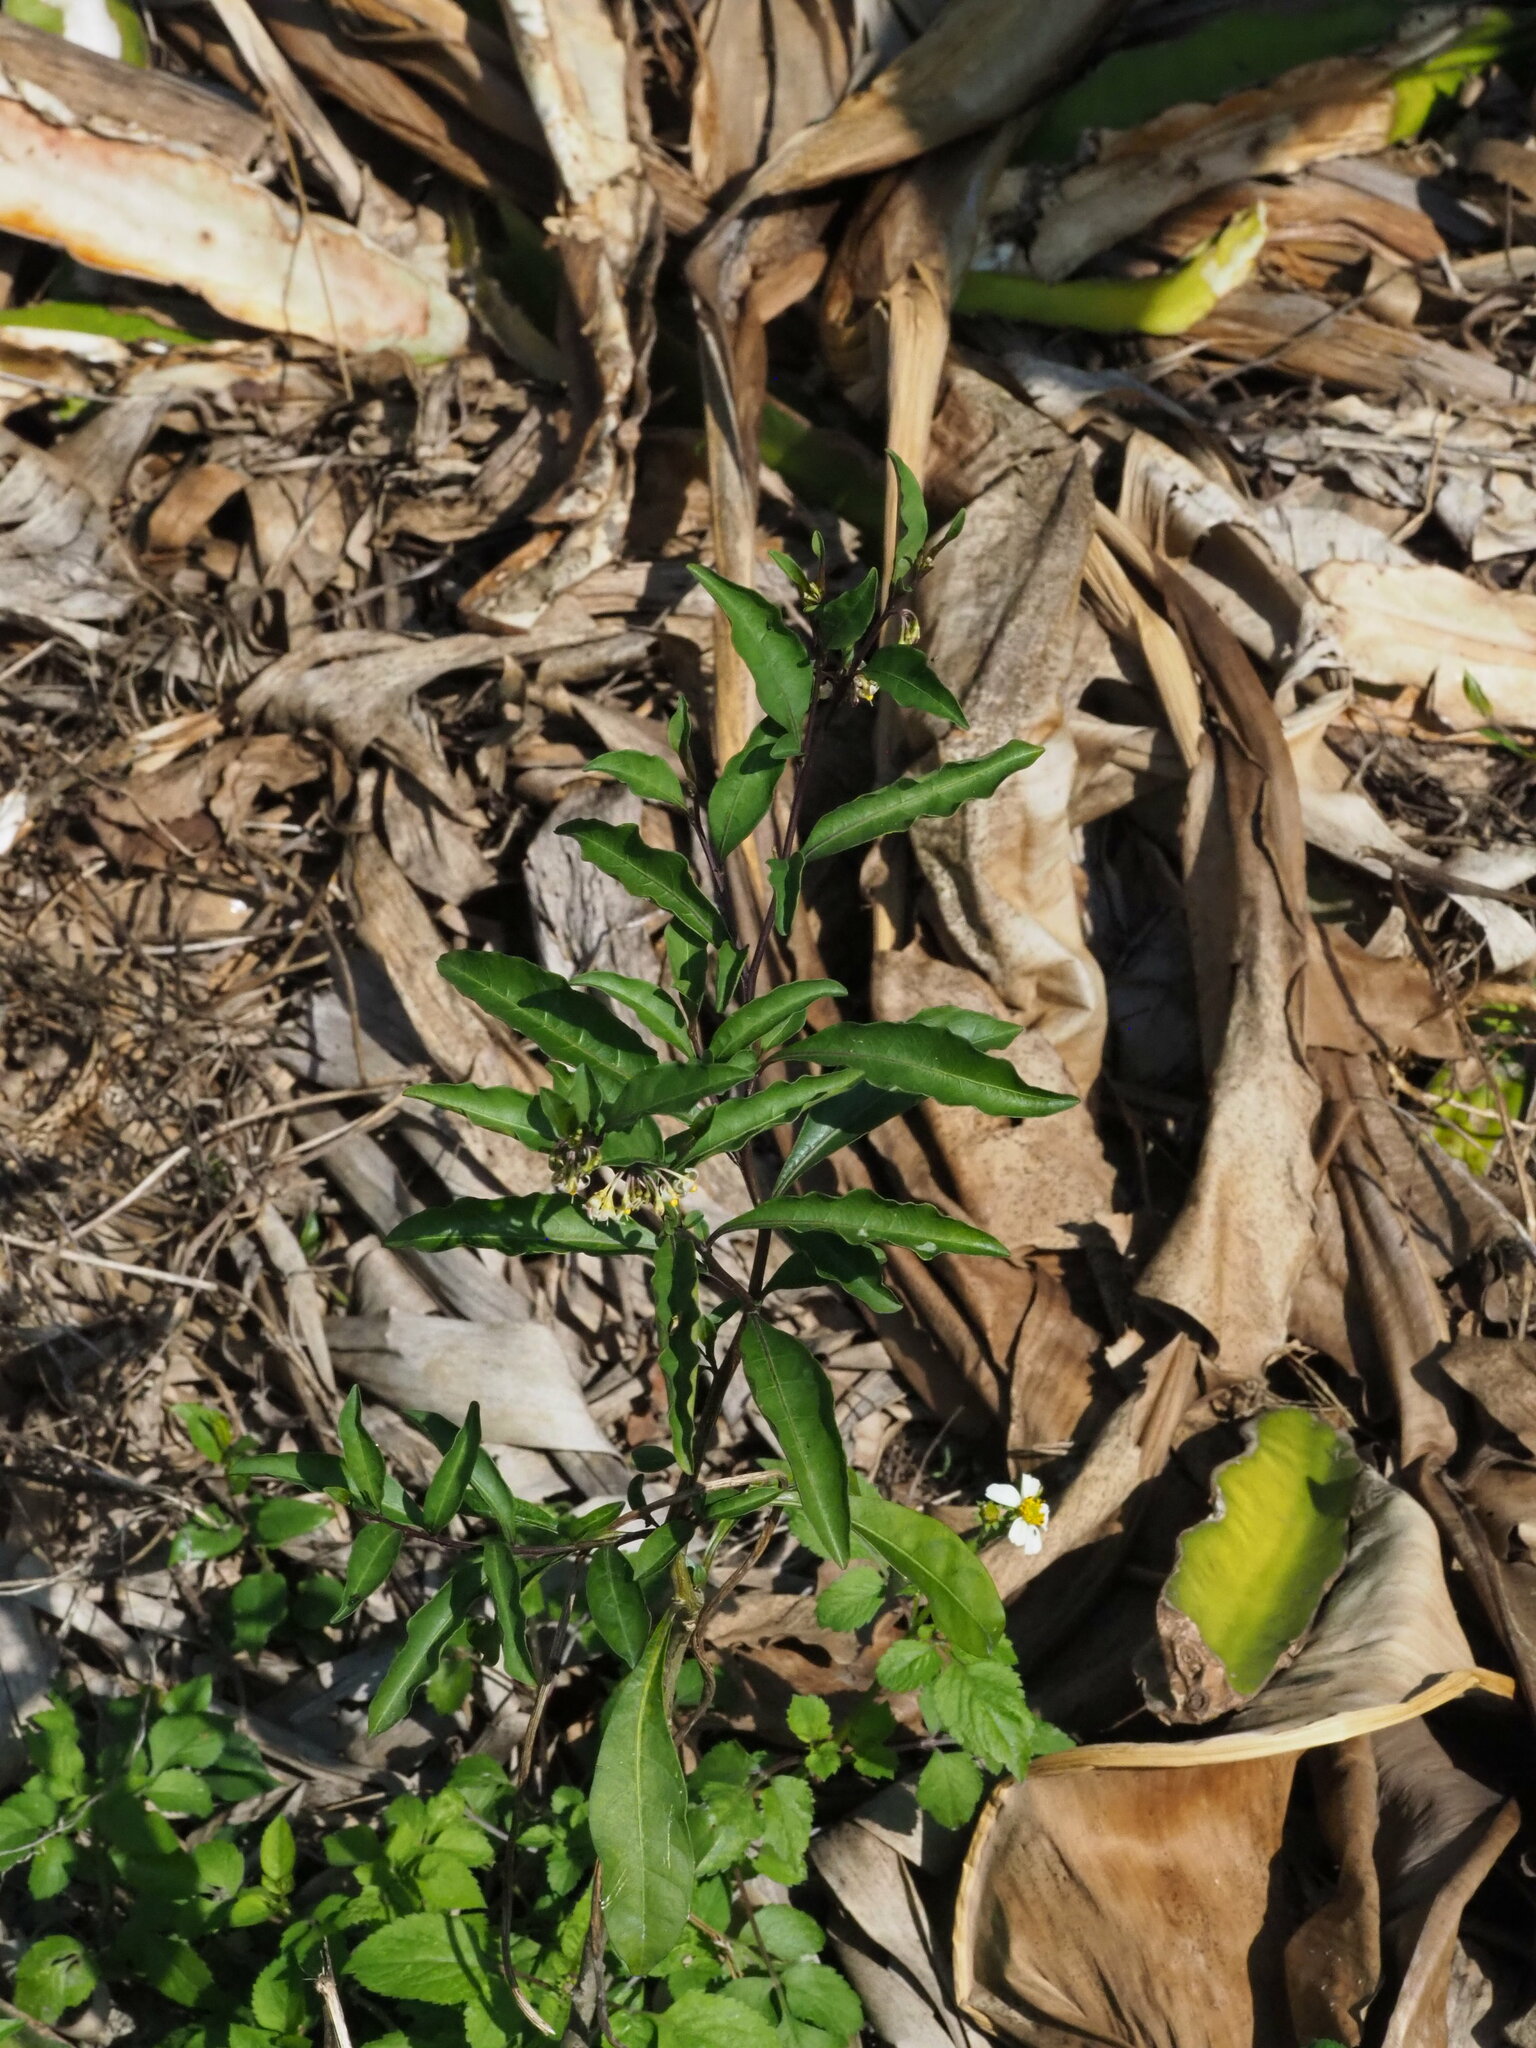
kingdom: Plantae
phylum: Tracheophyta
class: Magnoliopsida
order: Solanales
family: Solanaceae
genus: Solanum
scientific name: Solanum diphyllum
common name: Twoleaf nightshade
